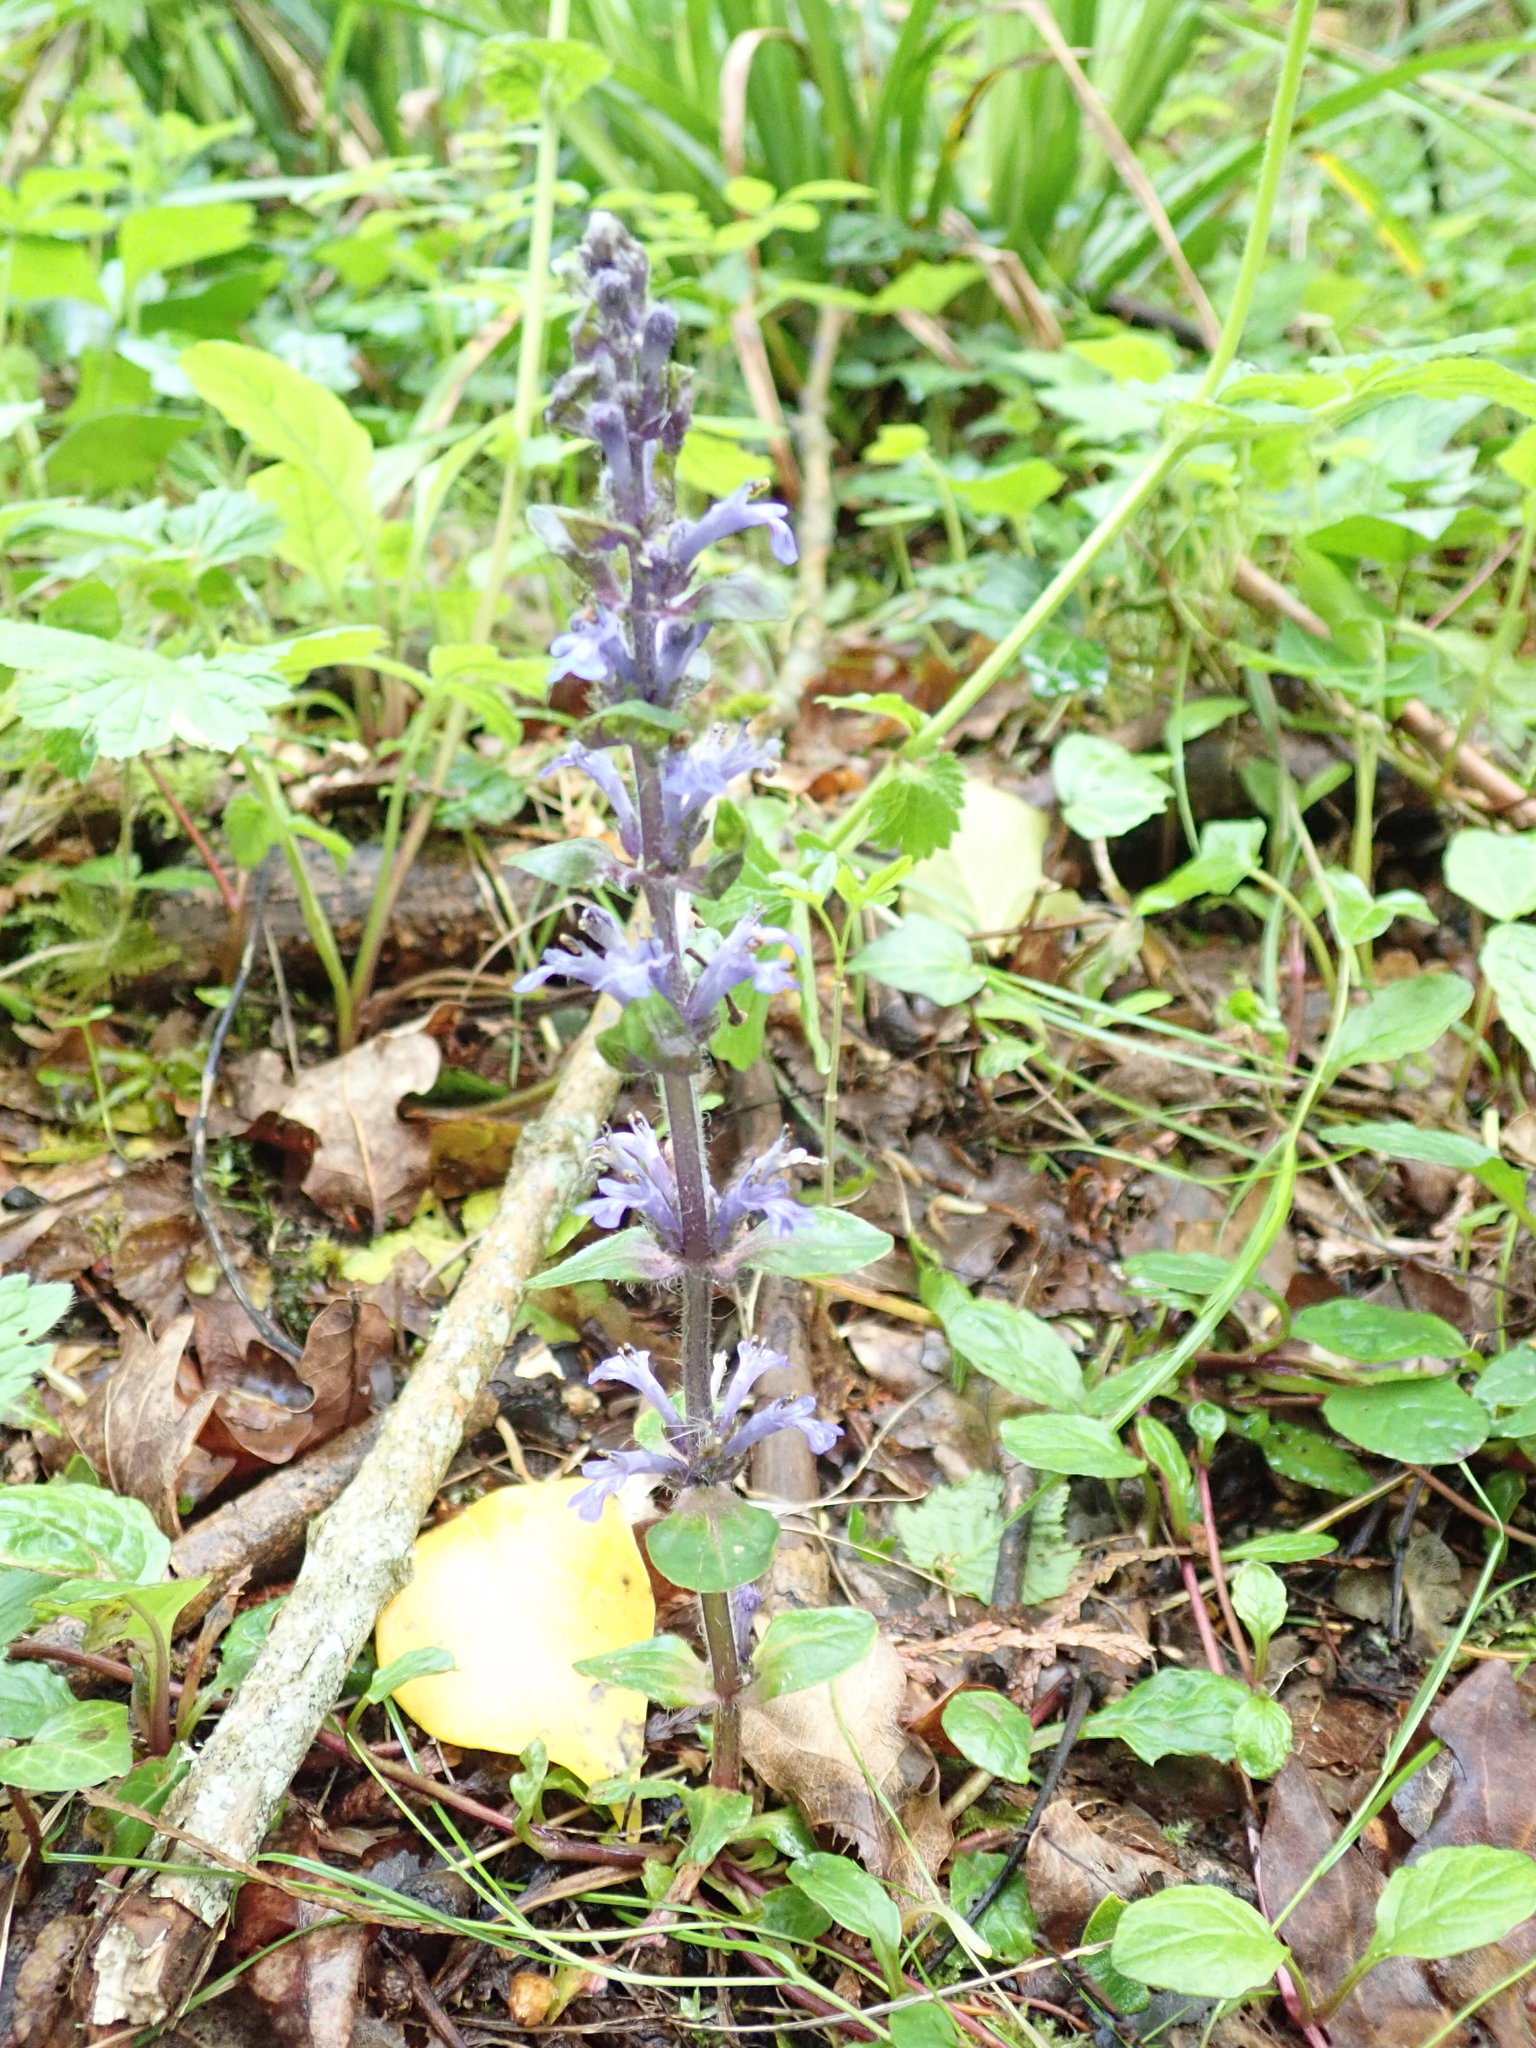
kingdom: Plantae
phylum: Tracheophyta
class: Magnoliopsida
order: Lamiales
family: Lamiaceae
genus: Ajuga
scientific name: Ajuga reptans
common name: Bugle
